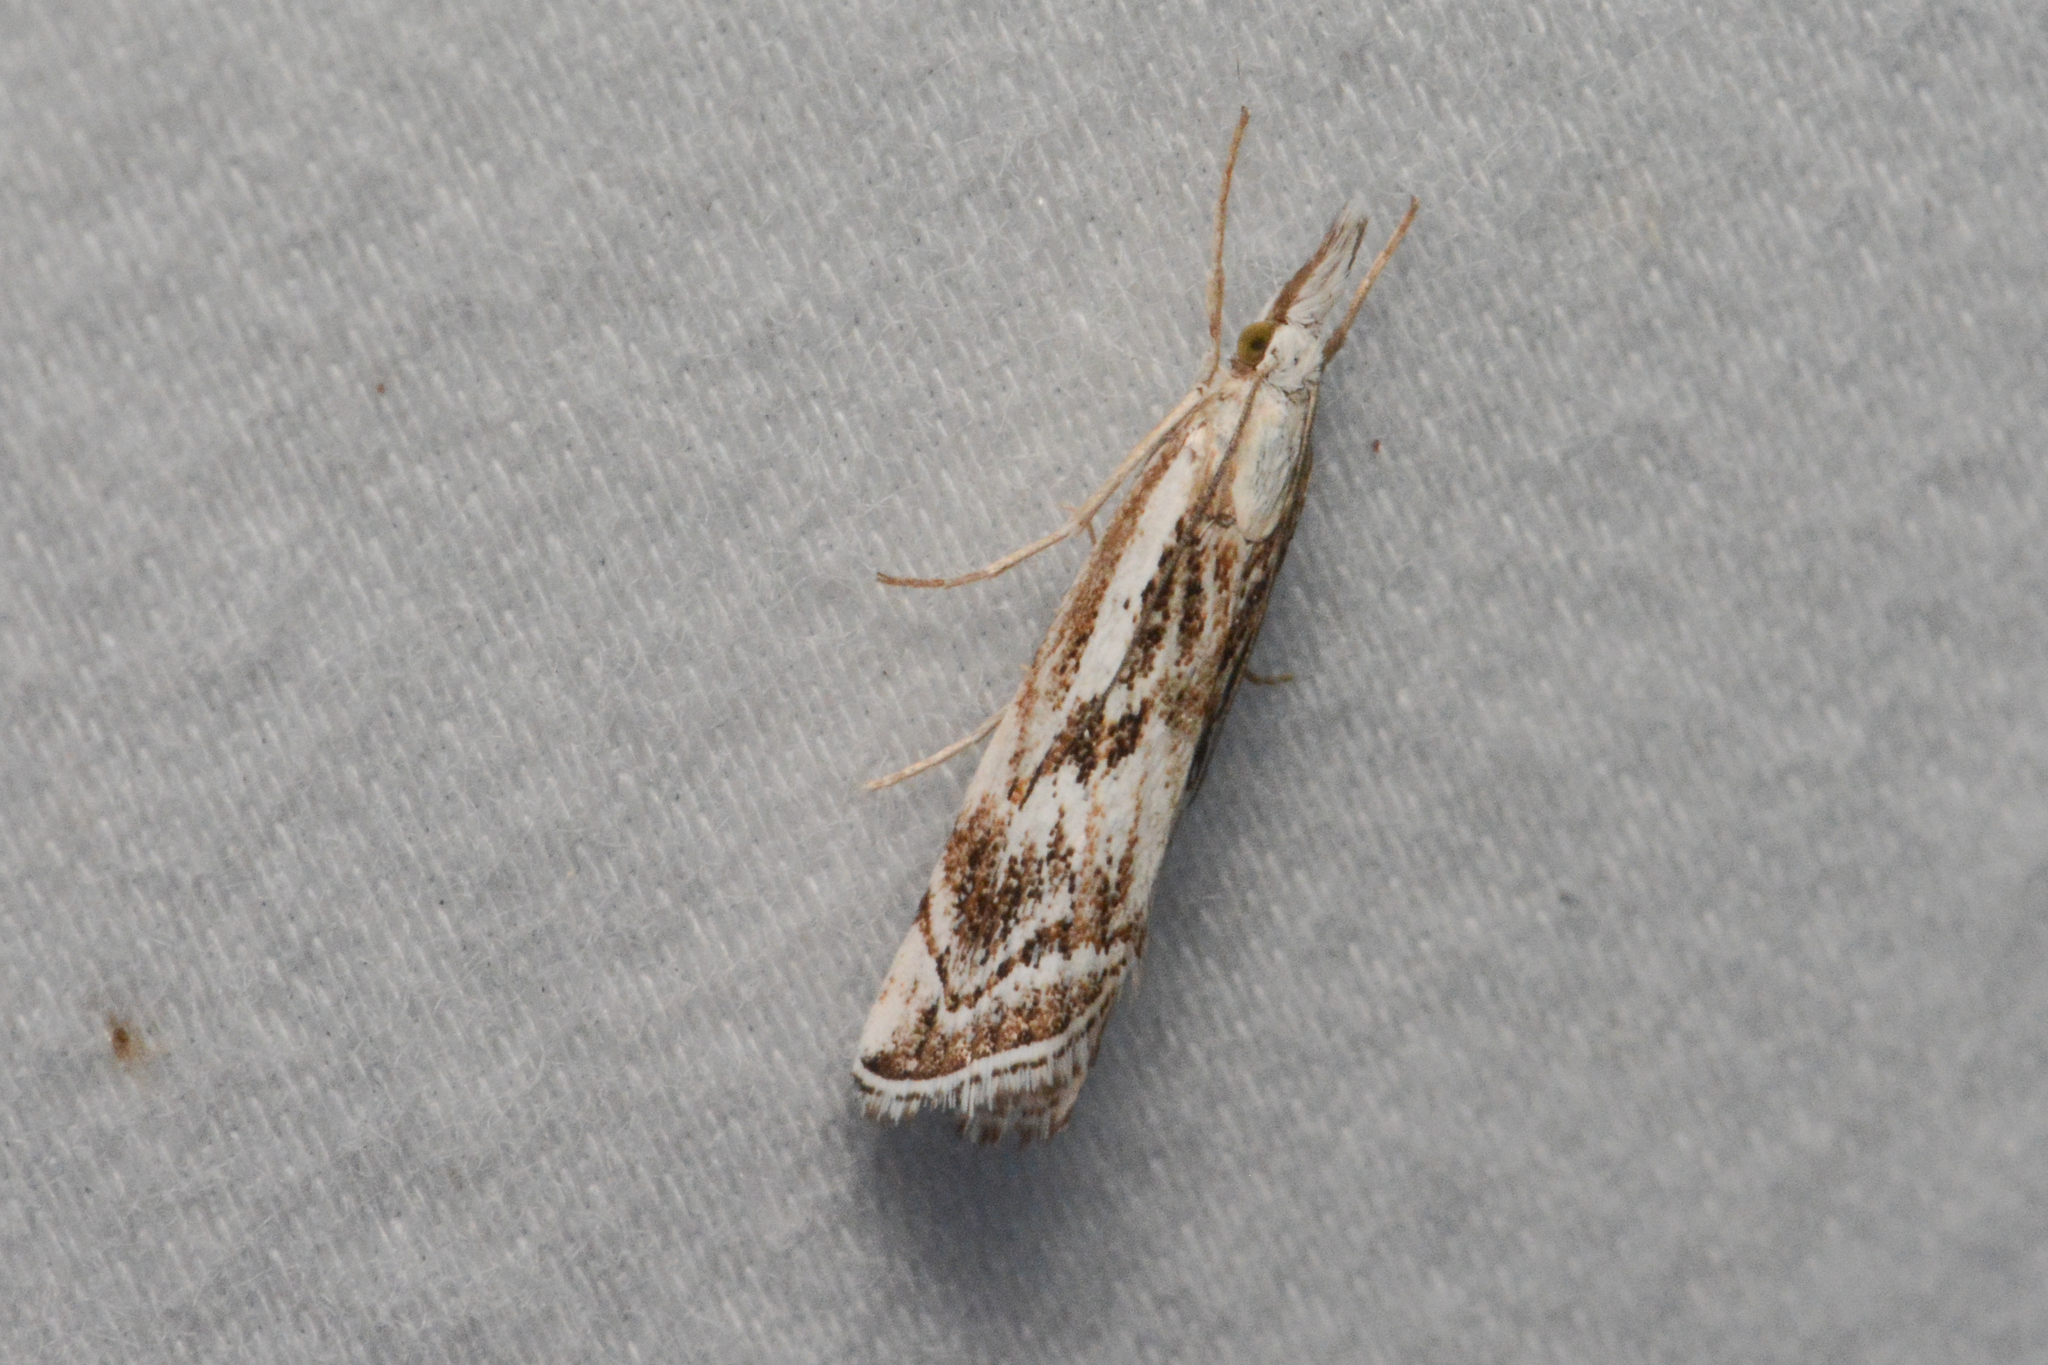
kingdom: Animalia
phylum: Arthropoda
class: Insecta
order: Lepidoptera
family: Crambidae
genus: Catoptria
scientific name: Catoptria oregonicus
